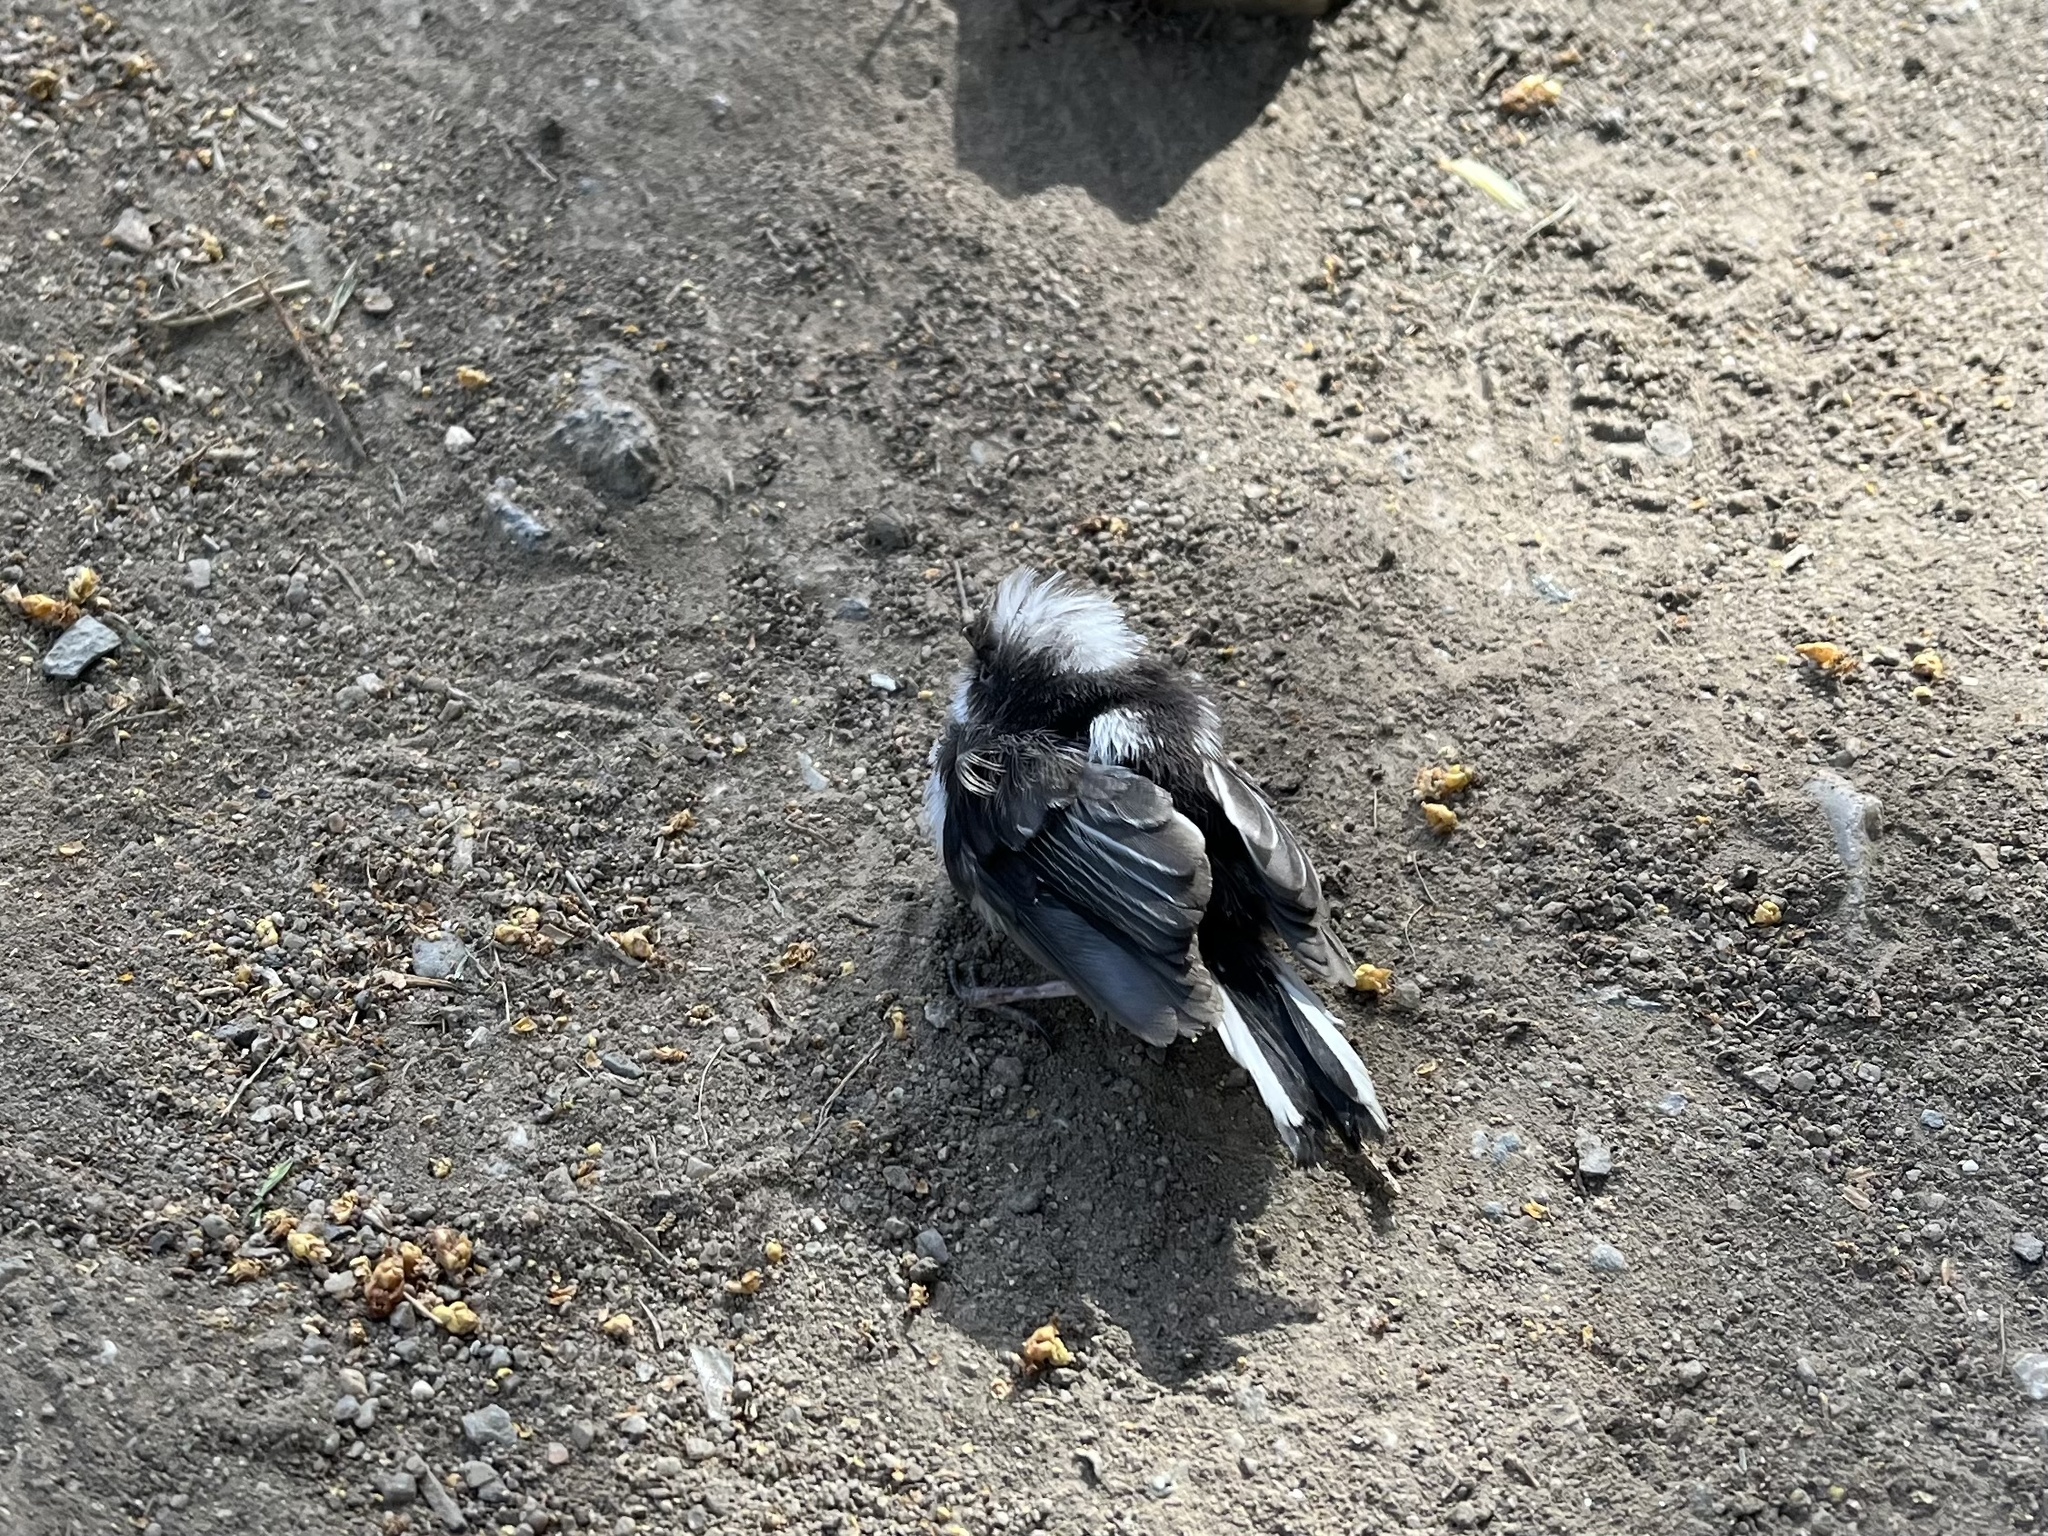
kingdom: Animalia
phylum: Chordata
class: Aves
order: Passeriformes
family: Aegithalidae
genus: Aegithalos
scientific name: Aegithalos caudatus
